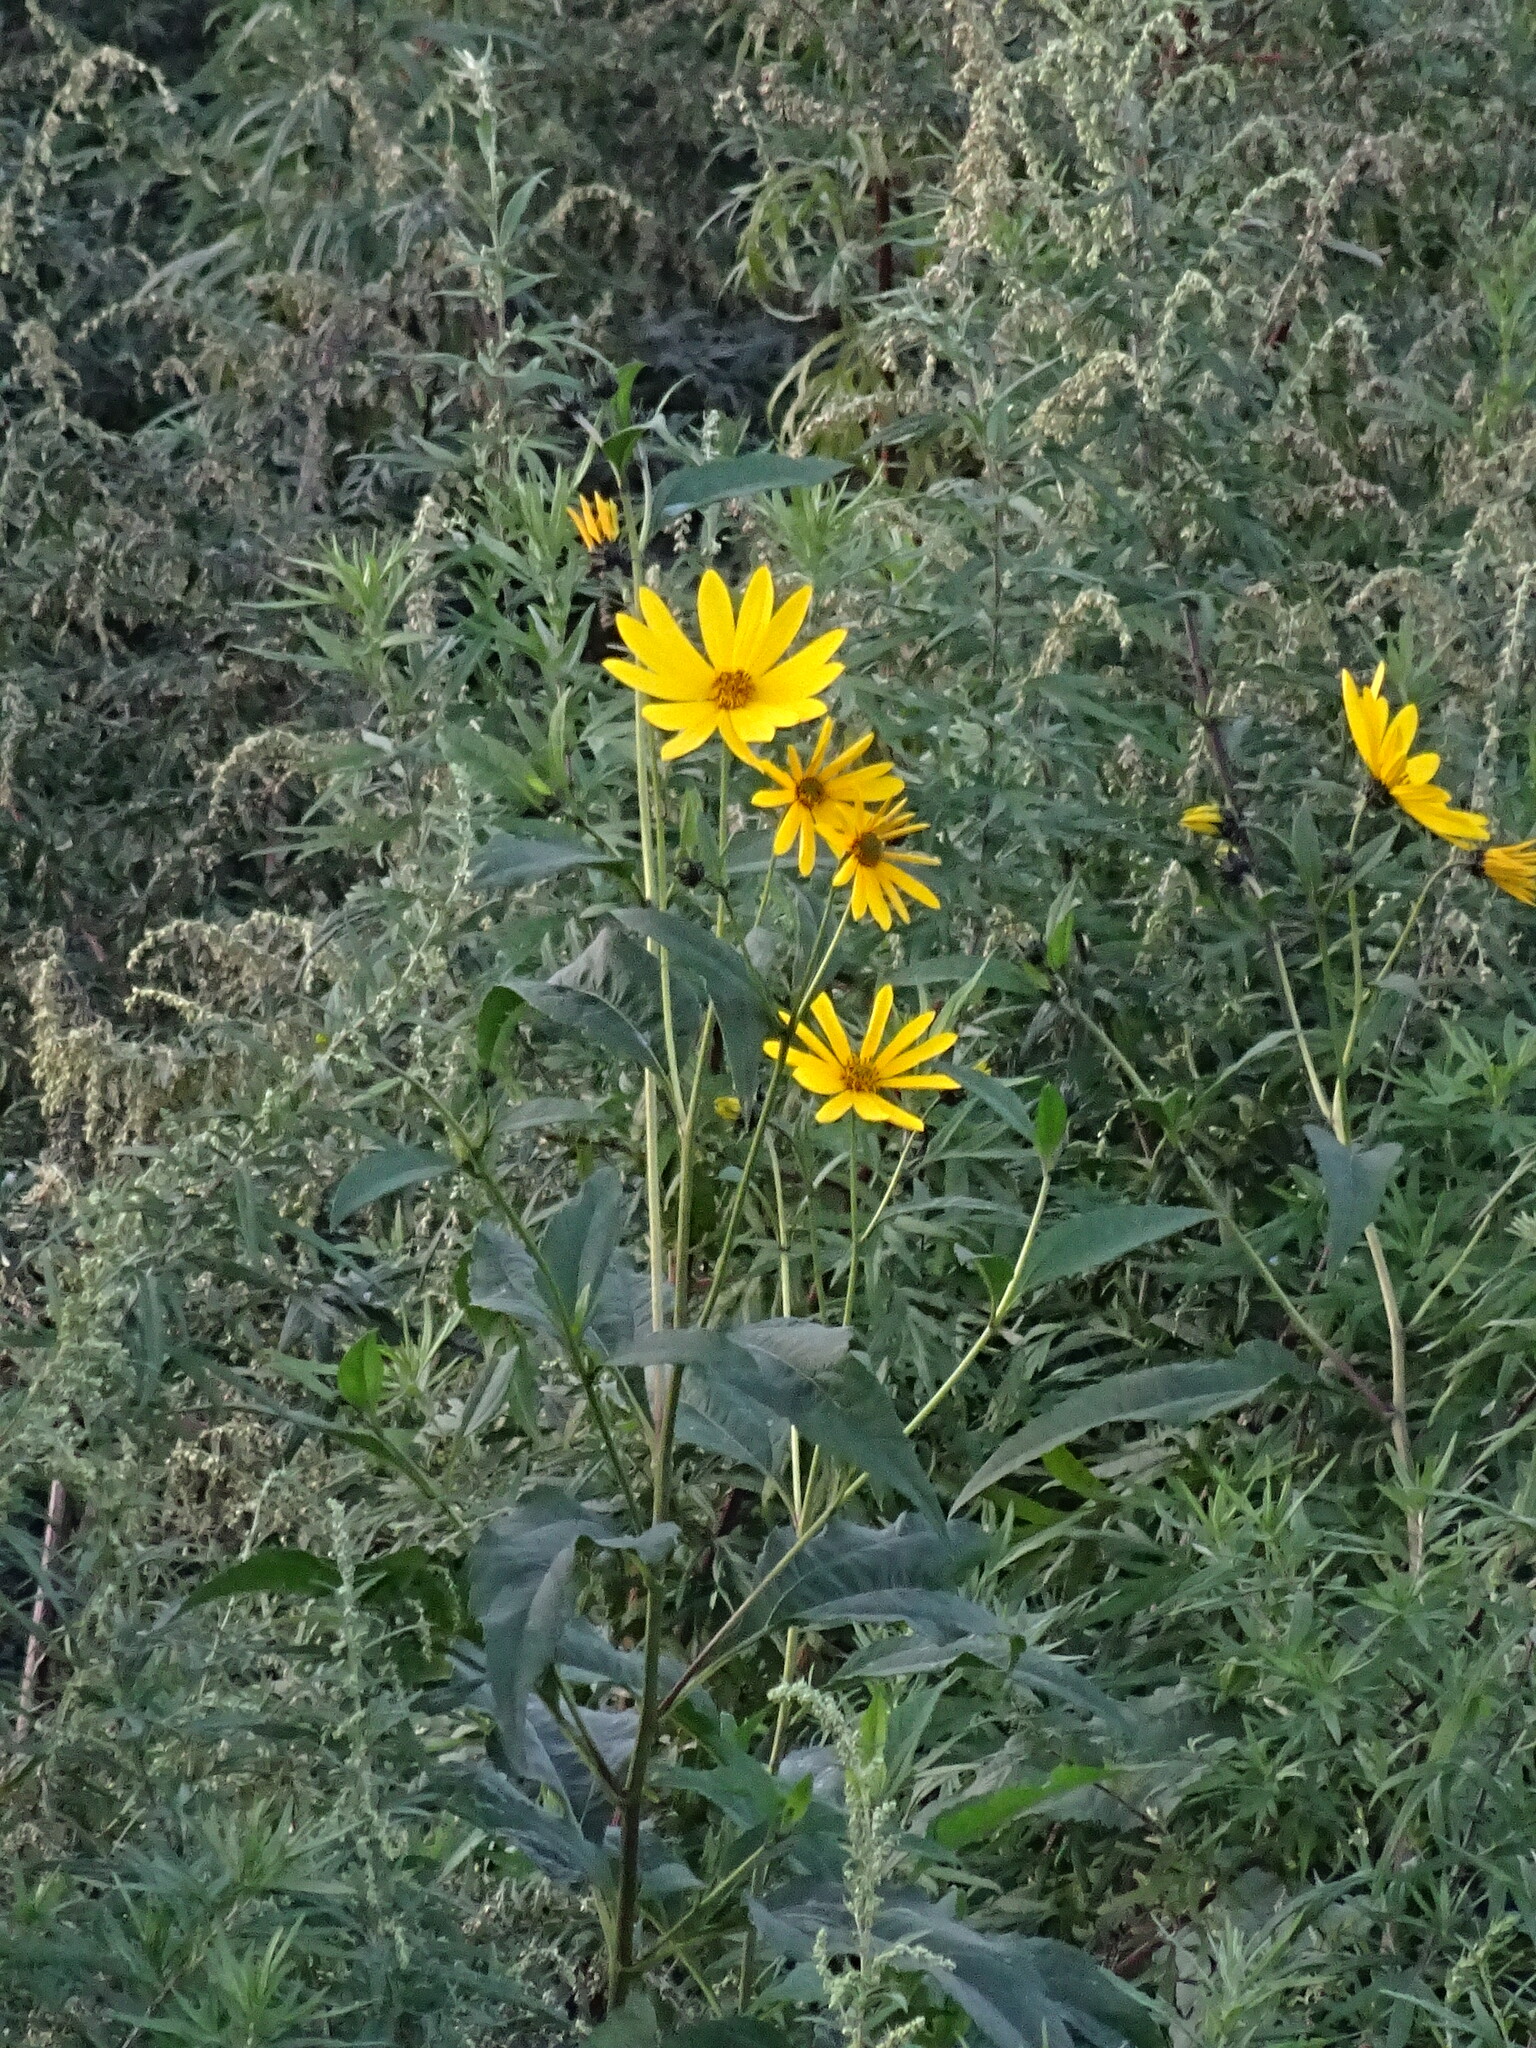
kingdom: Plantae
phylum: Tracheophyta
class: Magnoliopsida
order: Asterales
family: Asteraceae
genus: Helianthus
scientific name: Helianthus tuberosus
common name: Jerusalem artichoke
